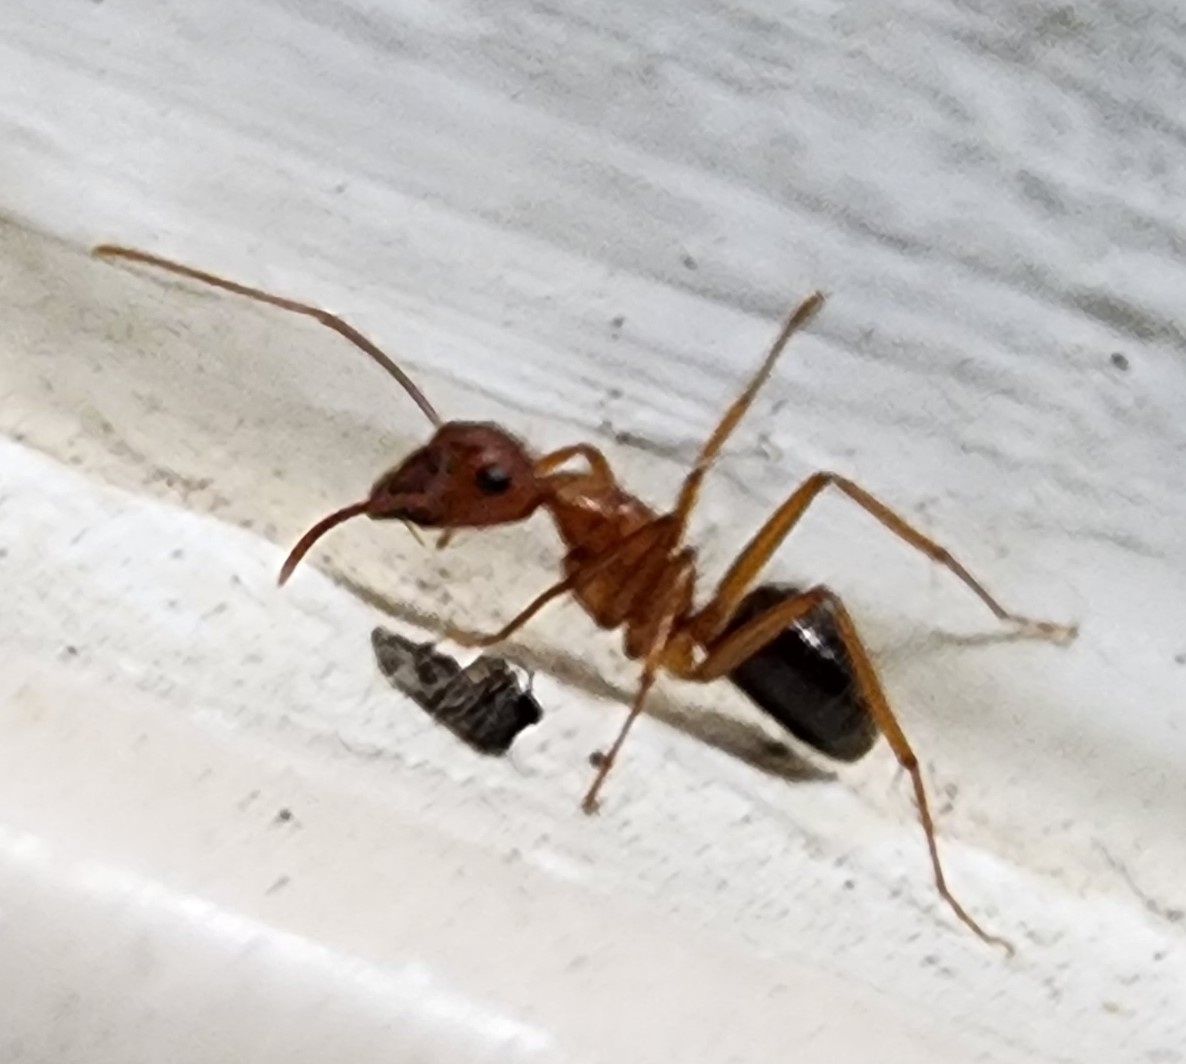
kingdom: Animalia
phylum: Arthropoda
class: Insecta
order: Hymenoptera
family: Formicidae
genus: Camponotus
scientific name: Camponotus floridanus
